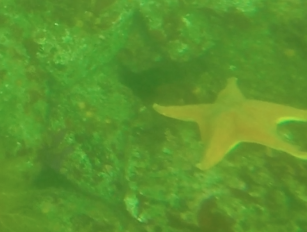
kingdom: Animalia
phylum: Echinodermata
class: Asteroidea
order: Valvatida
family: Asterinidae
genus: Patiria
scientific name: Patiria miniata
